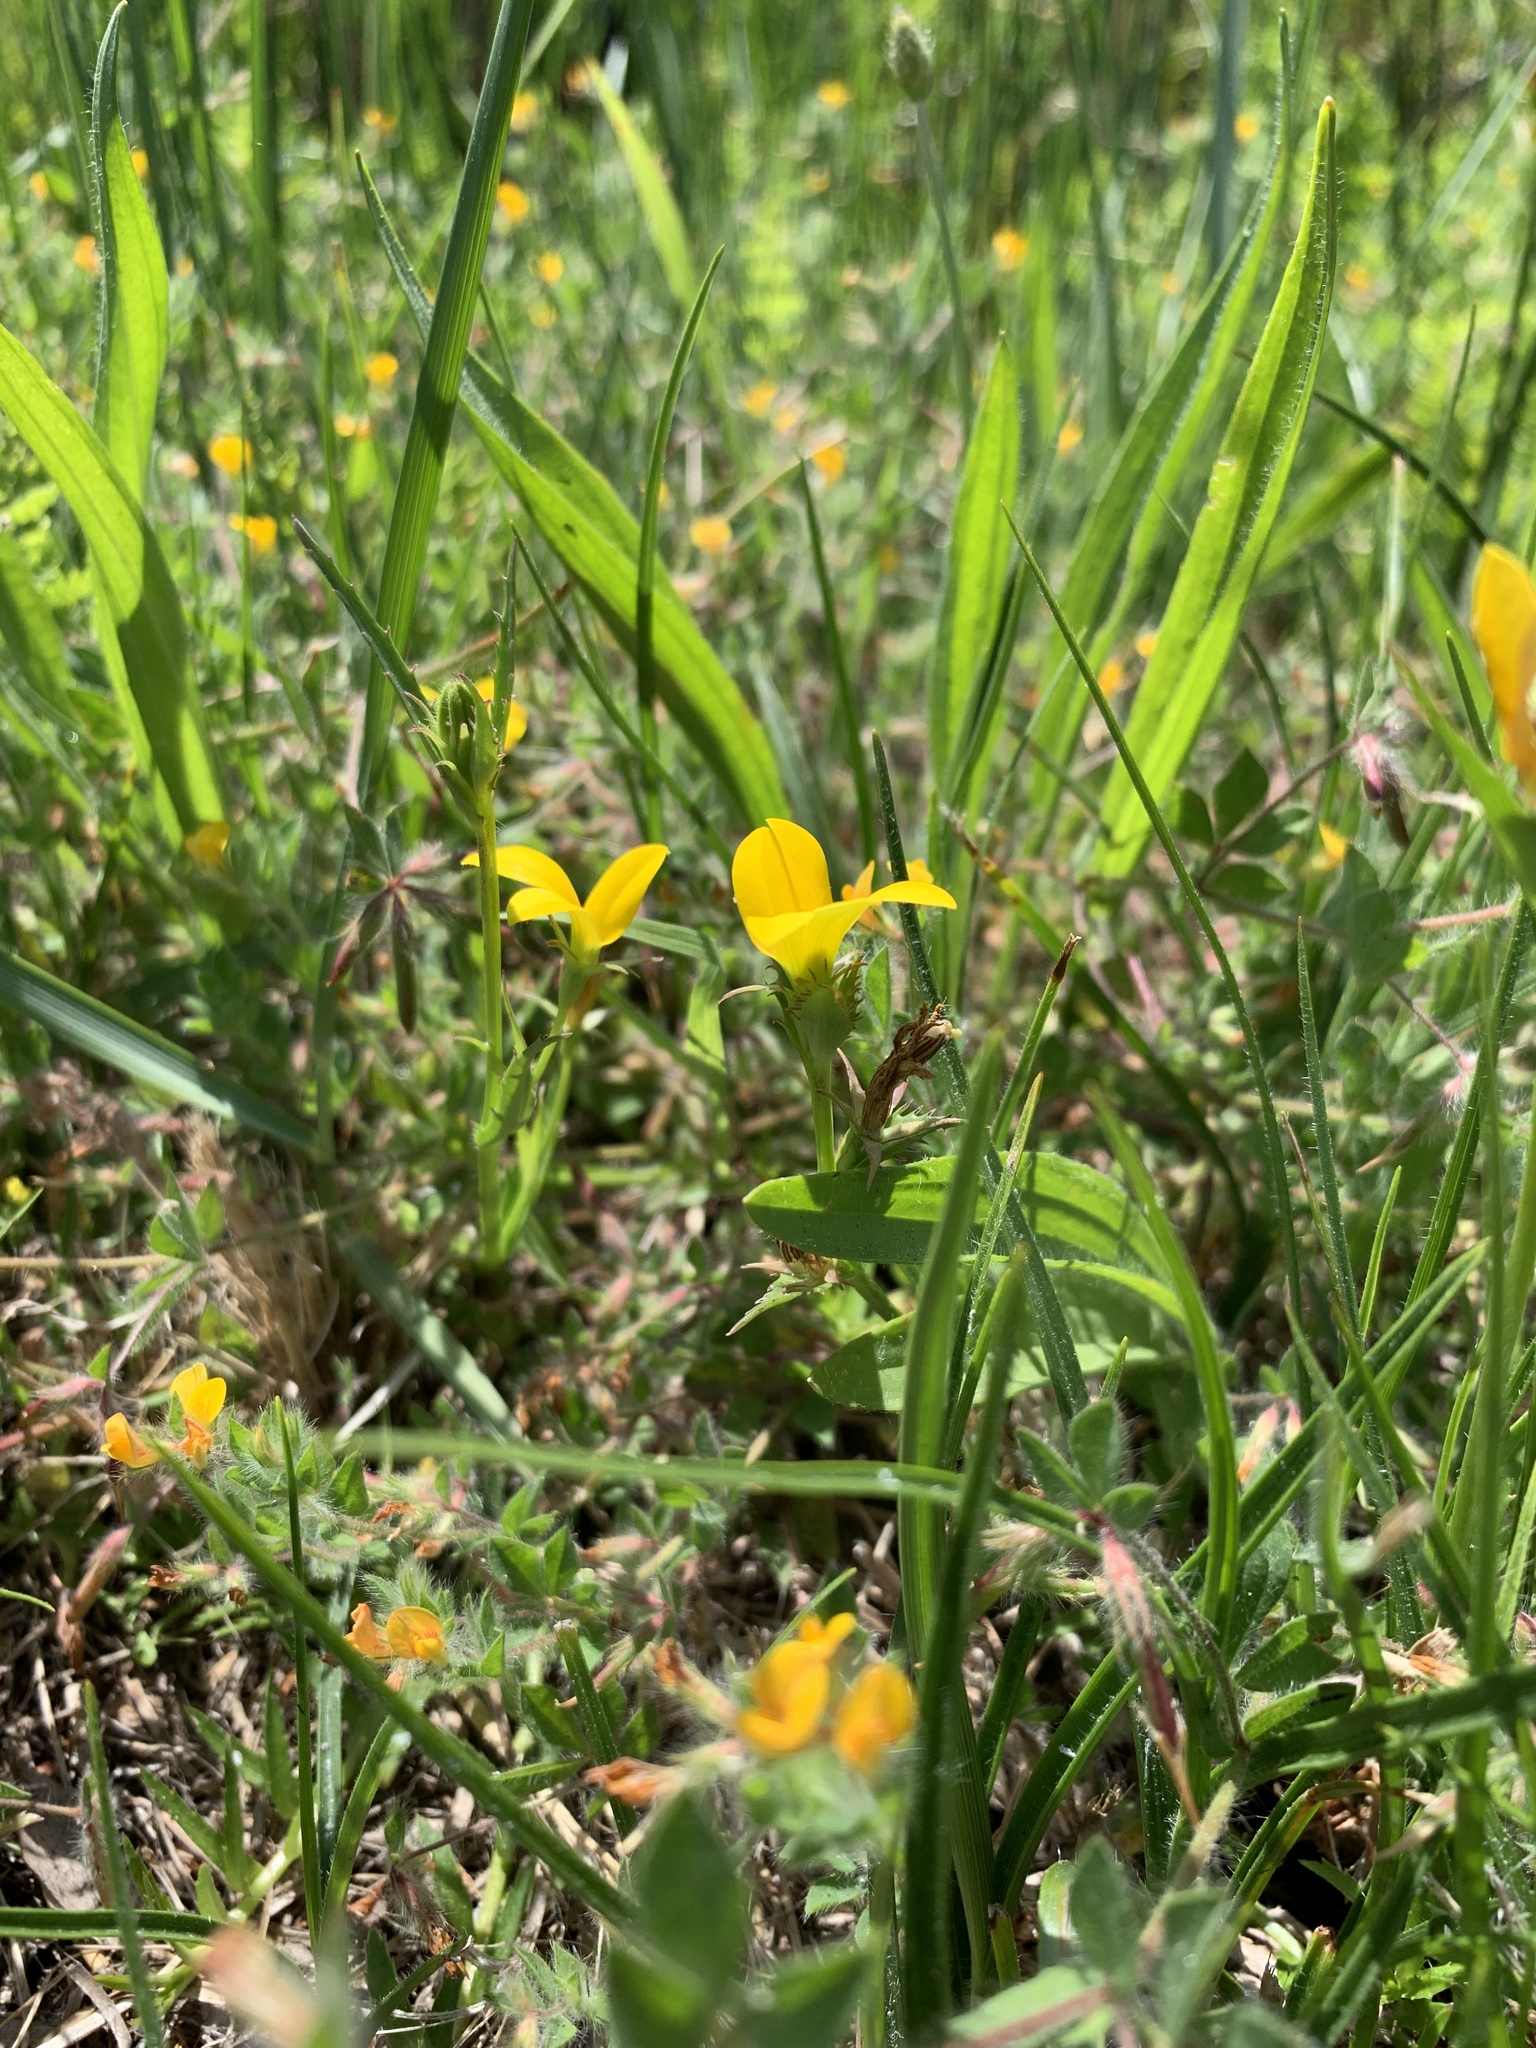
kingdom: Plantae
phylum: Tracheophyta
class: Magnoliopsida
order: Asterales
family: Campanulaceae
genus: Monopsis
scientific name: Monopsis lutea
